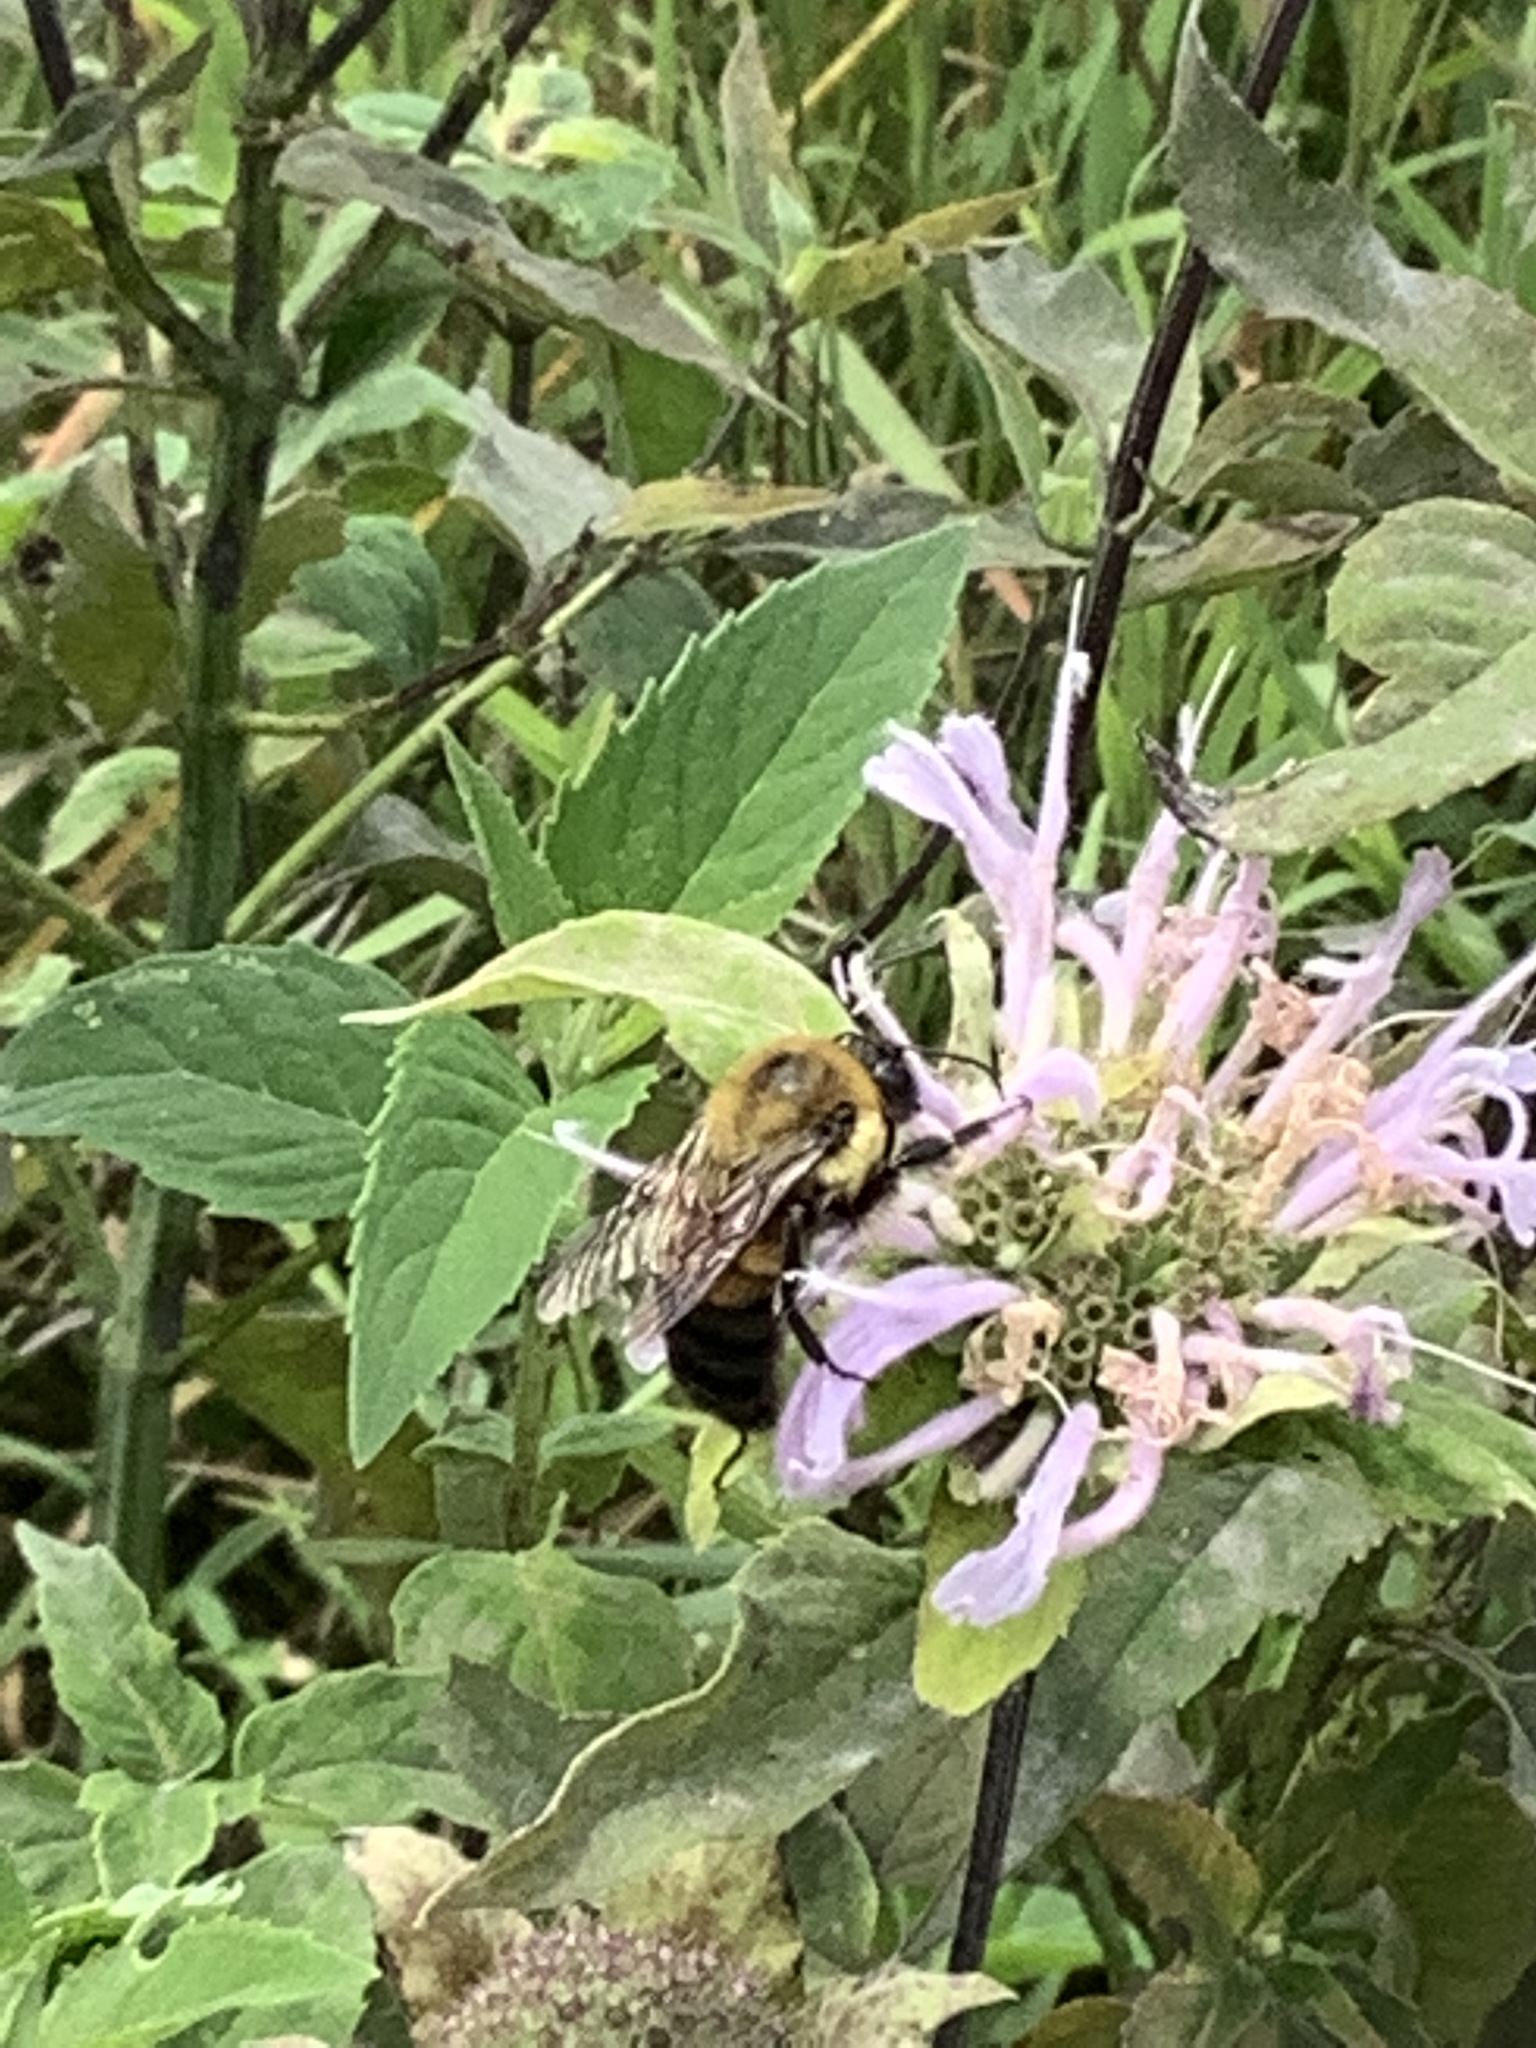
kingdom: Animalia
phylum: Arthropoda
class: Insecta
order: Hymenoptera
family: Apidae
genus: Bombus
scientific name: Bombus griseocollis
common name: Brown-belted bumble bee
